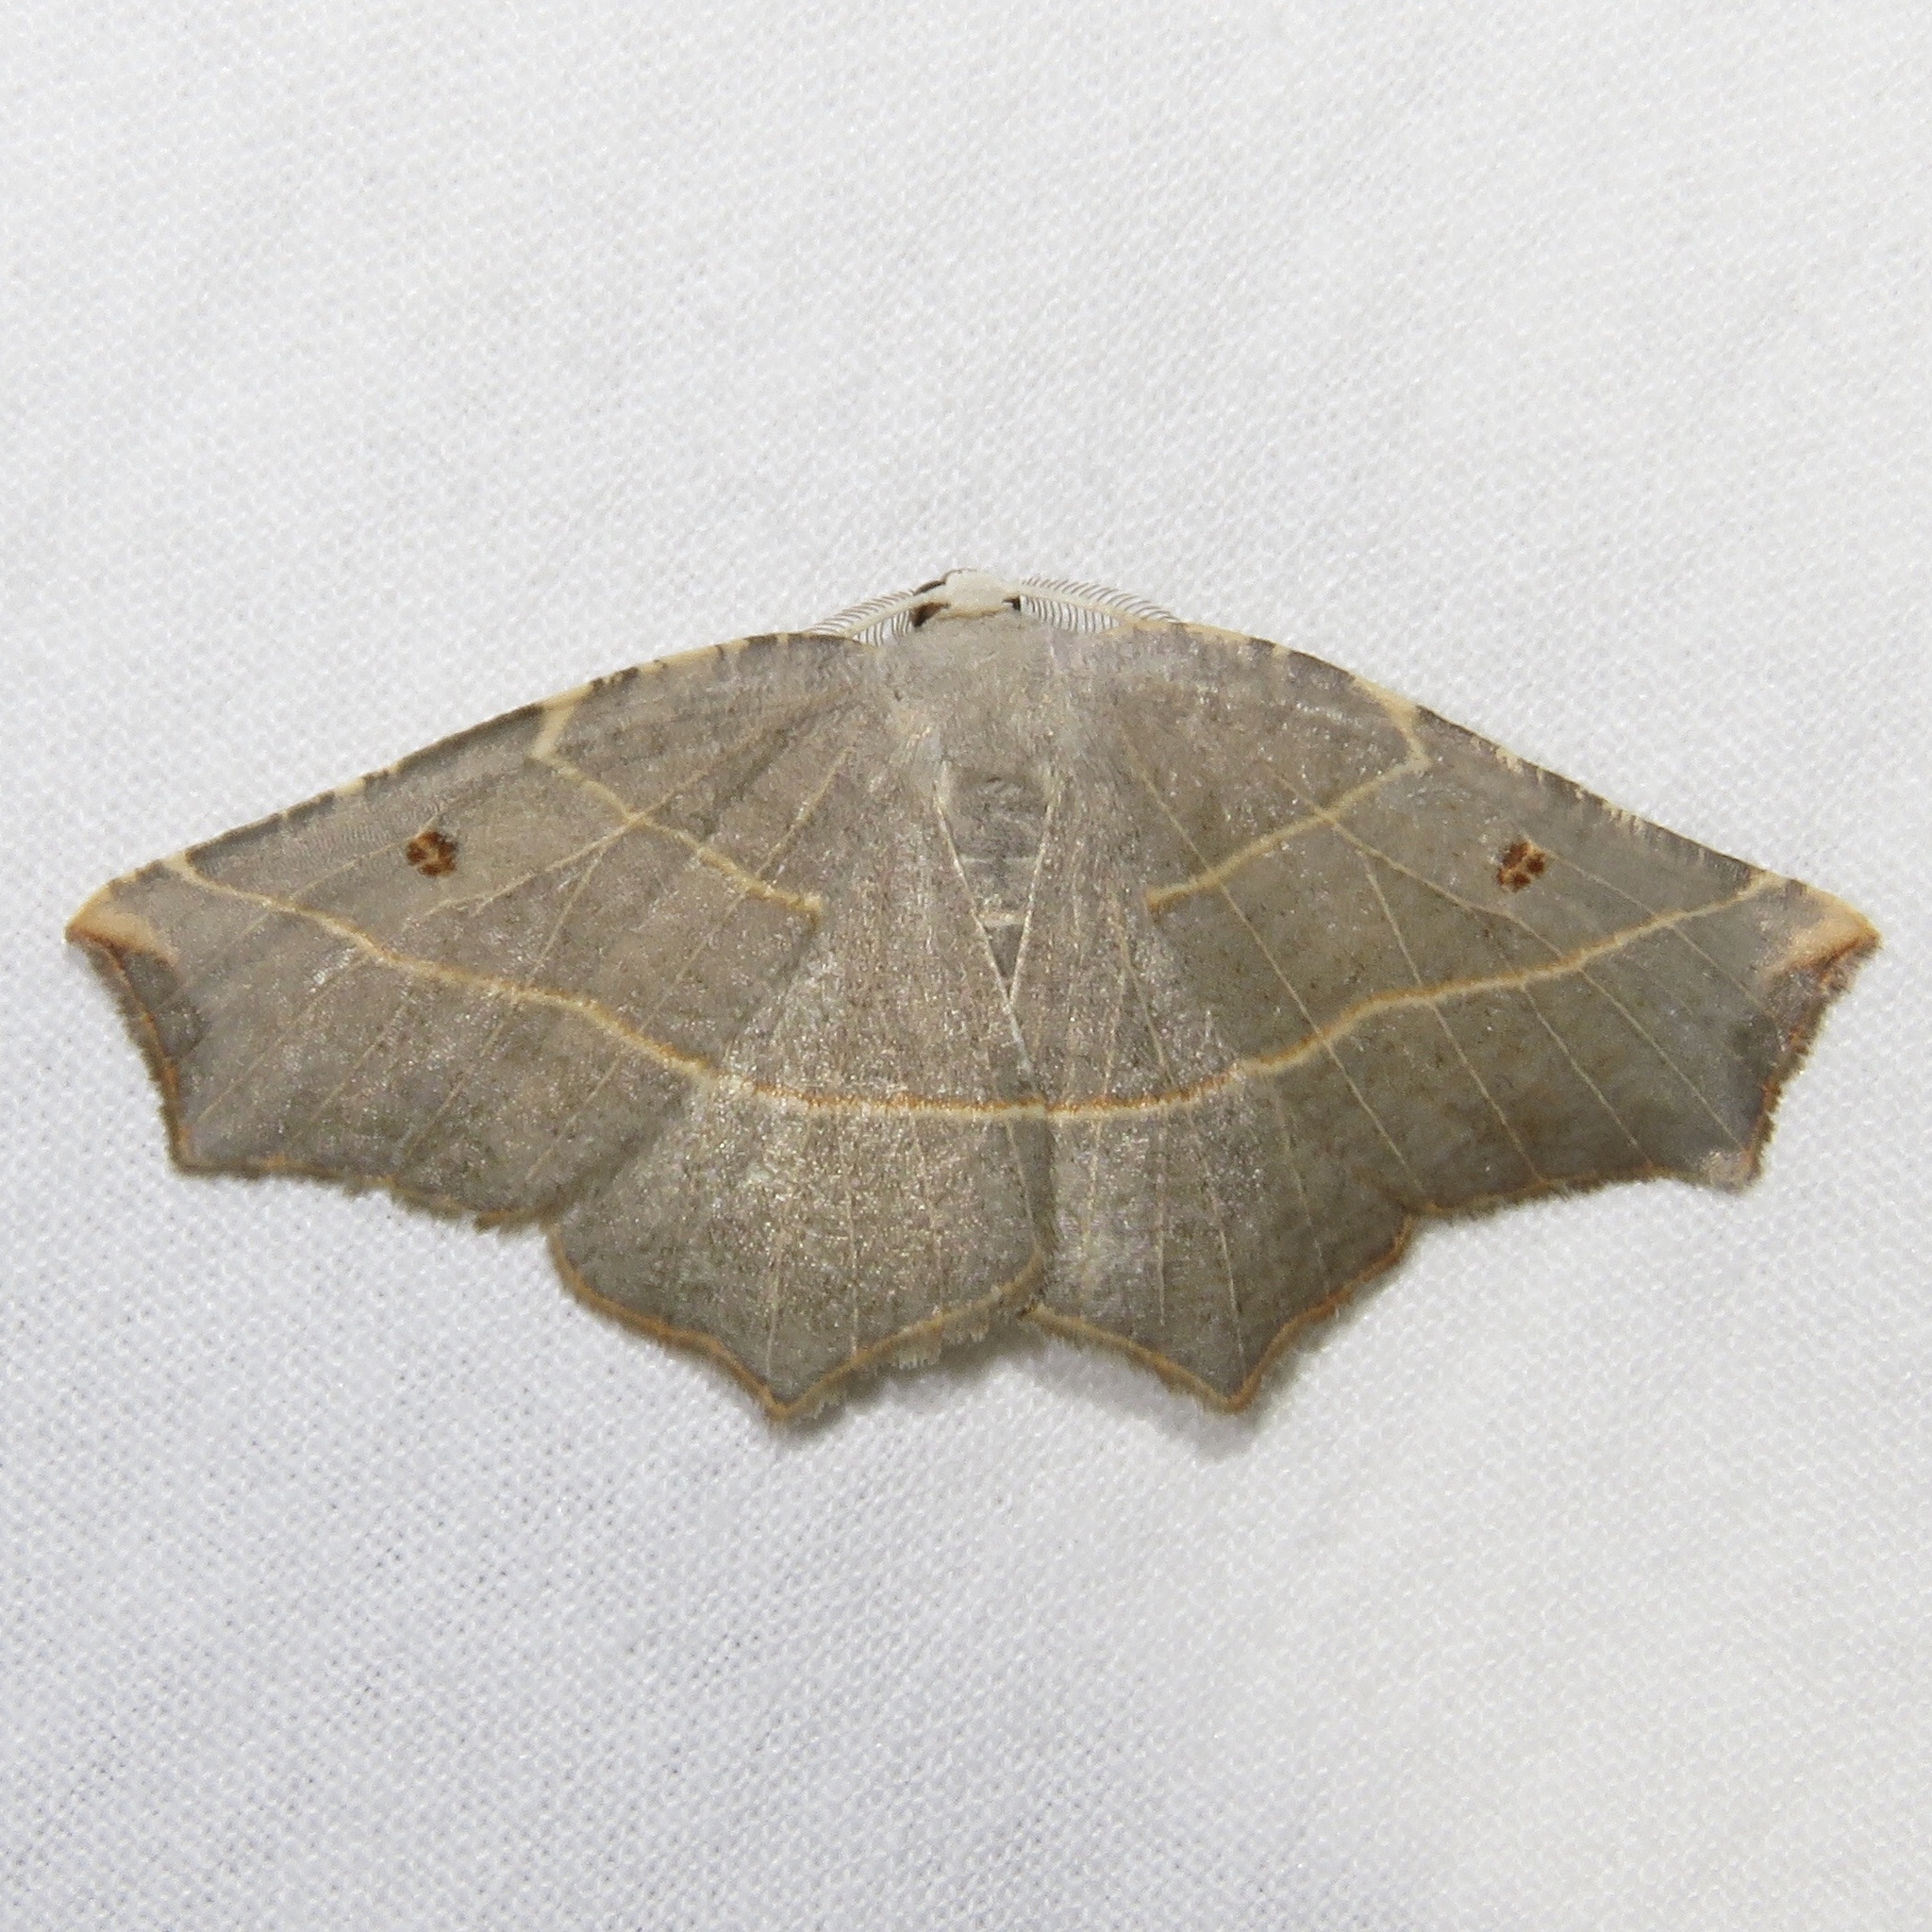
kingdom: Animalia
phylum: Arthropoda
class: Insecta
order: Lepidoptera
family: Geometridae
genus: Metanema
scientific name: Metanema inatomaria
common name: Pale metanema
